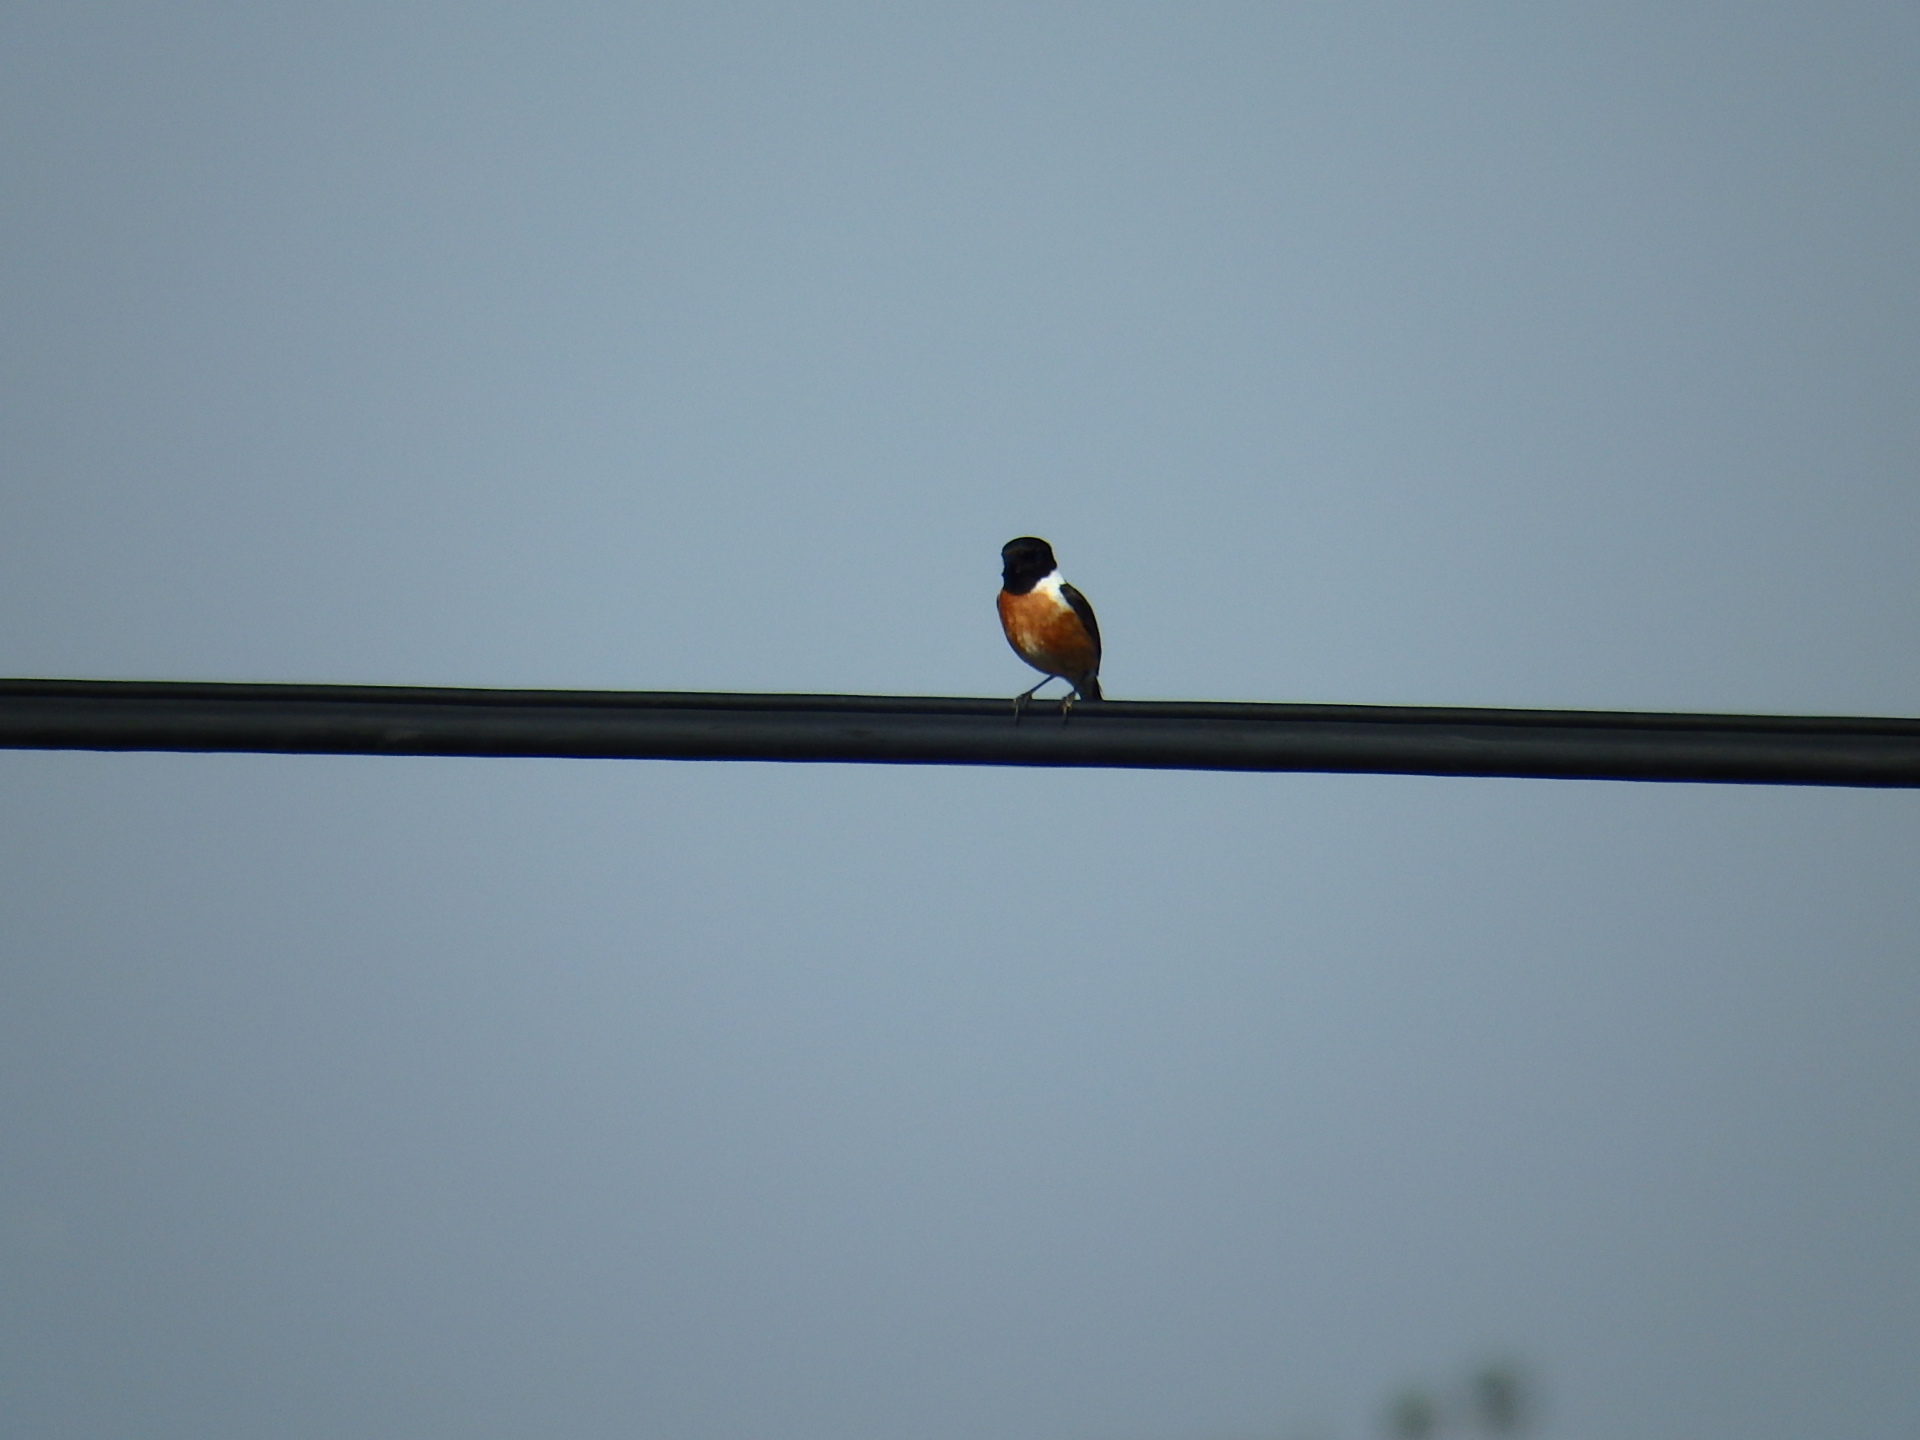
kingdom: Animalia
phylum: Chordata
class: Aves
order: Passeriformes
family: Muscicapidae
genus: Saxicola
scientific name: Saxicola rubicola
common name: European stonechat
